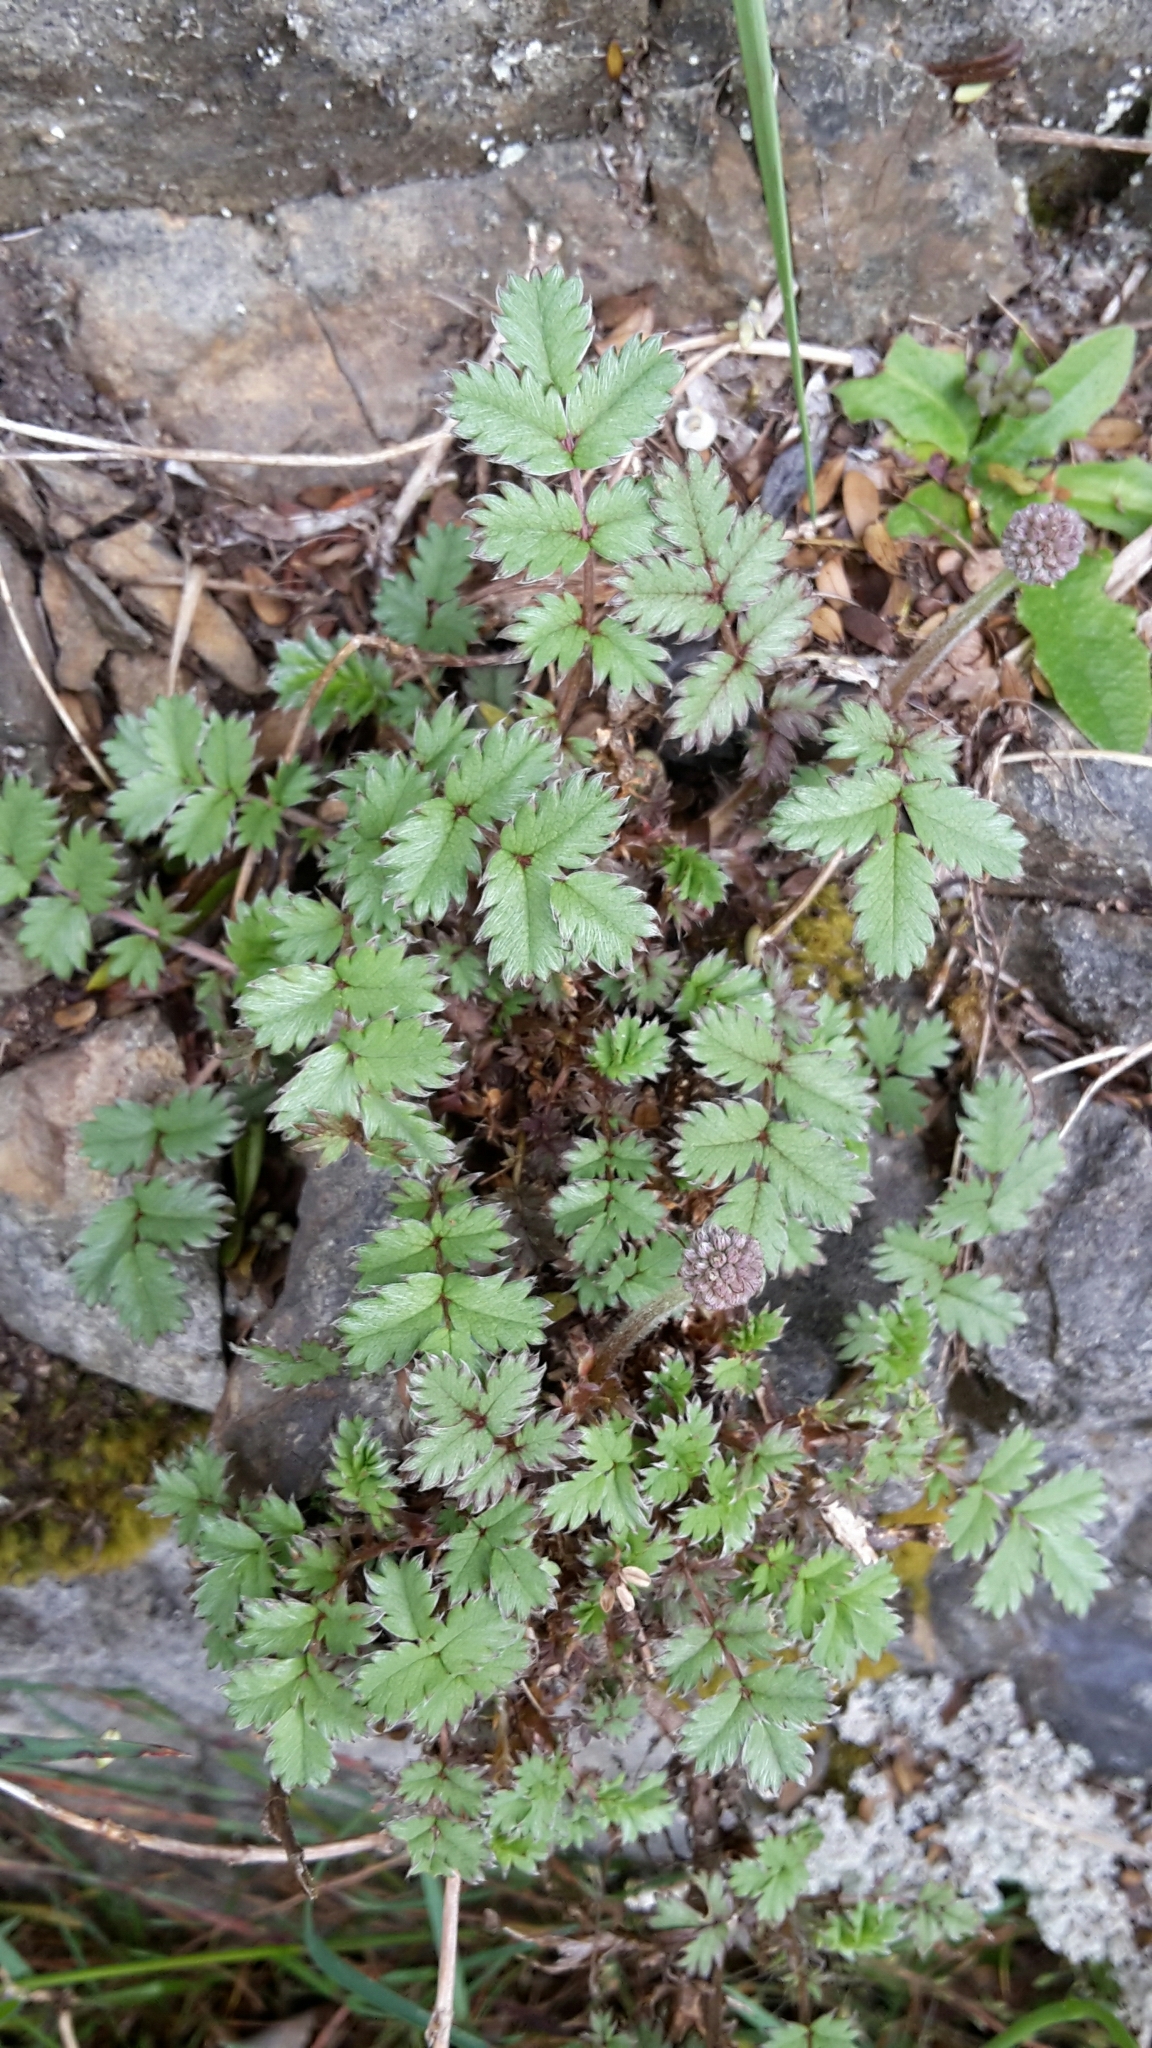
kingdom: Plantae
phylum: Tracheophyta
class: Magnoliopsida
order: Rosales
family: Rosaceae
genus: Acaena
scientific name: Acaena anserinifolia
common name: Bronze pirri-pirri-bur
